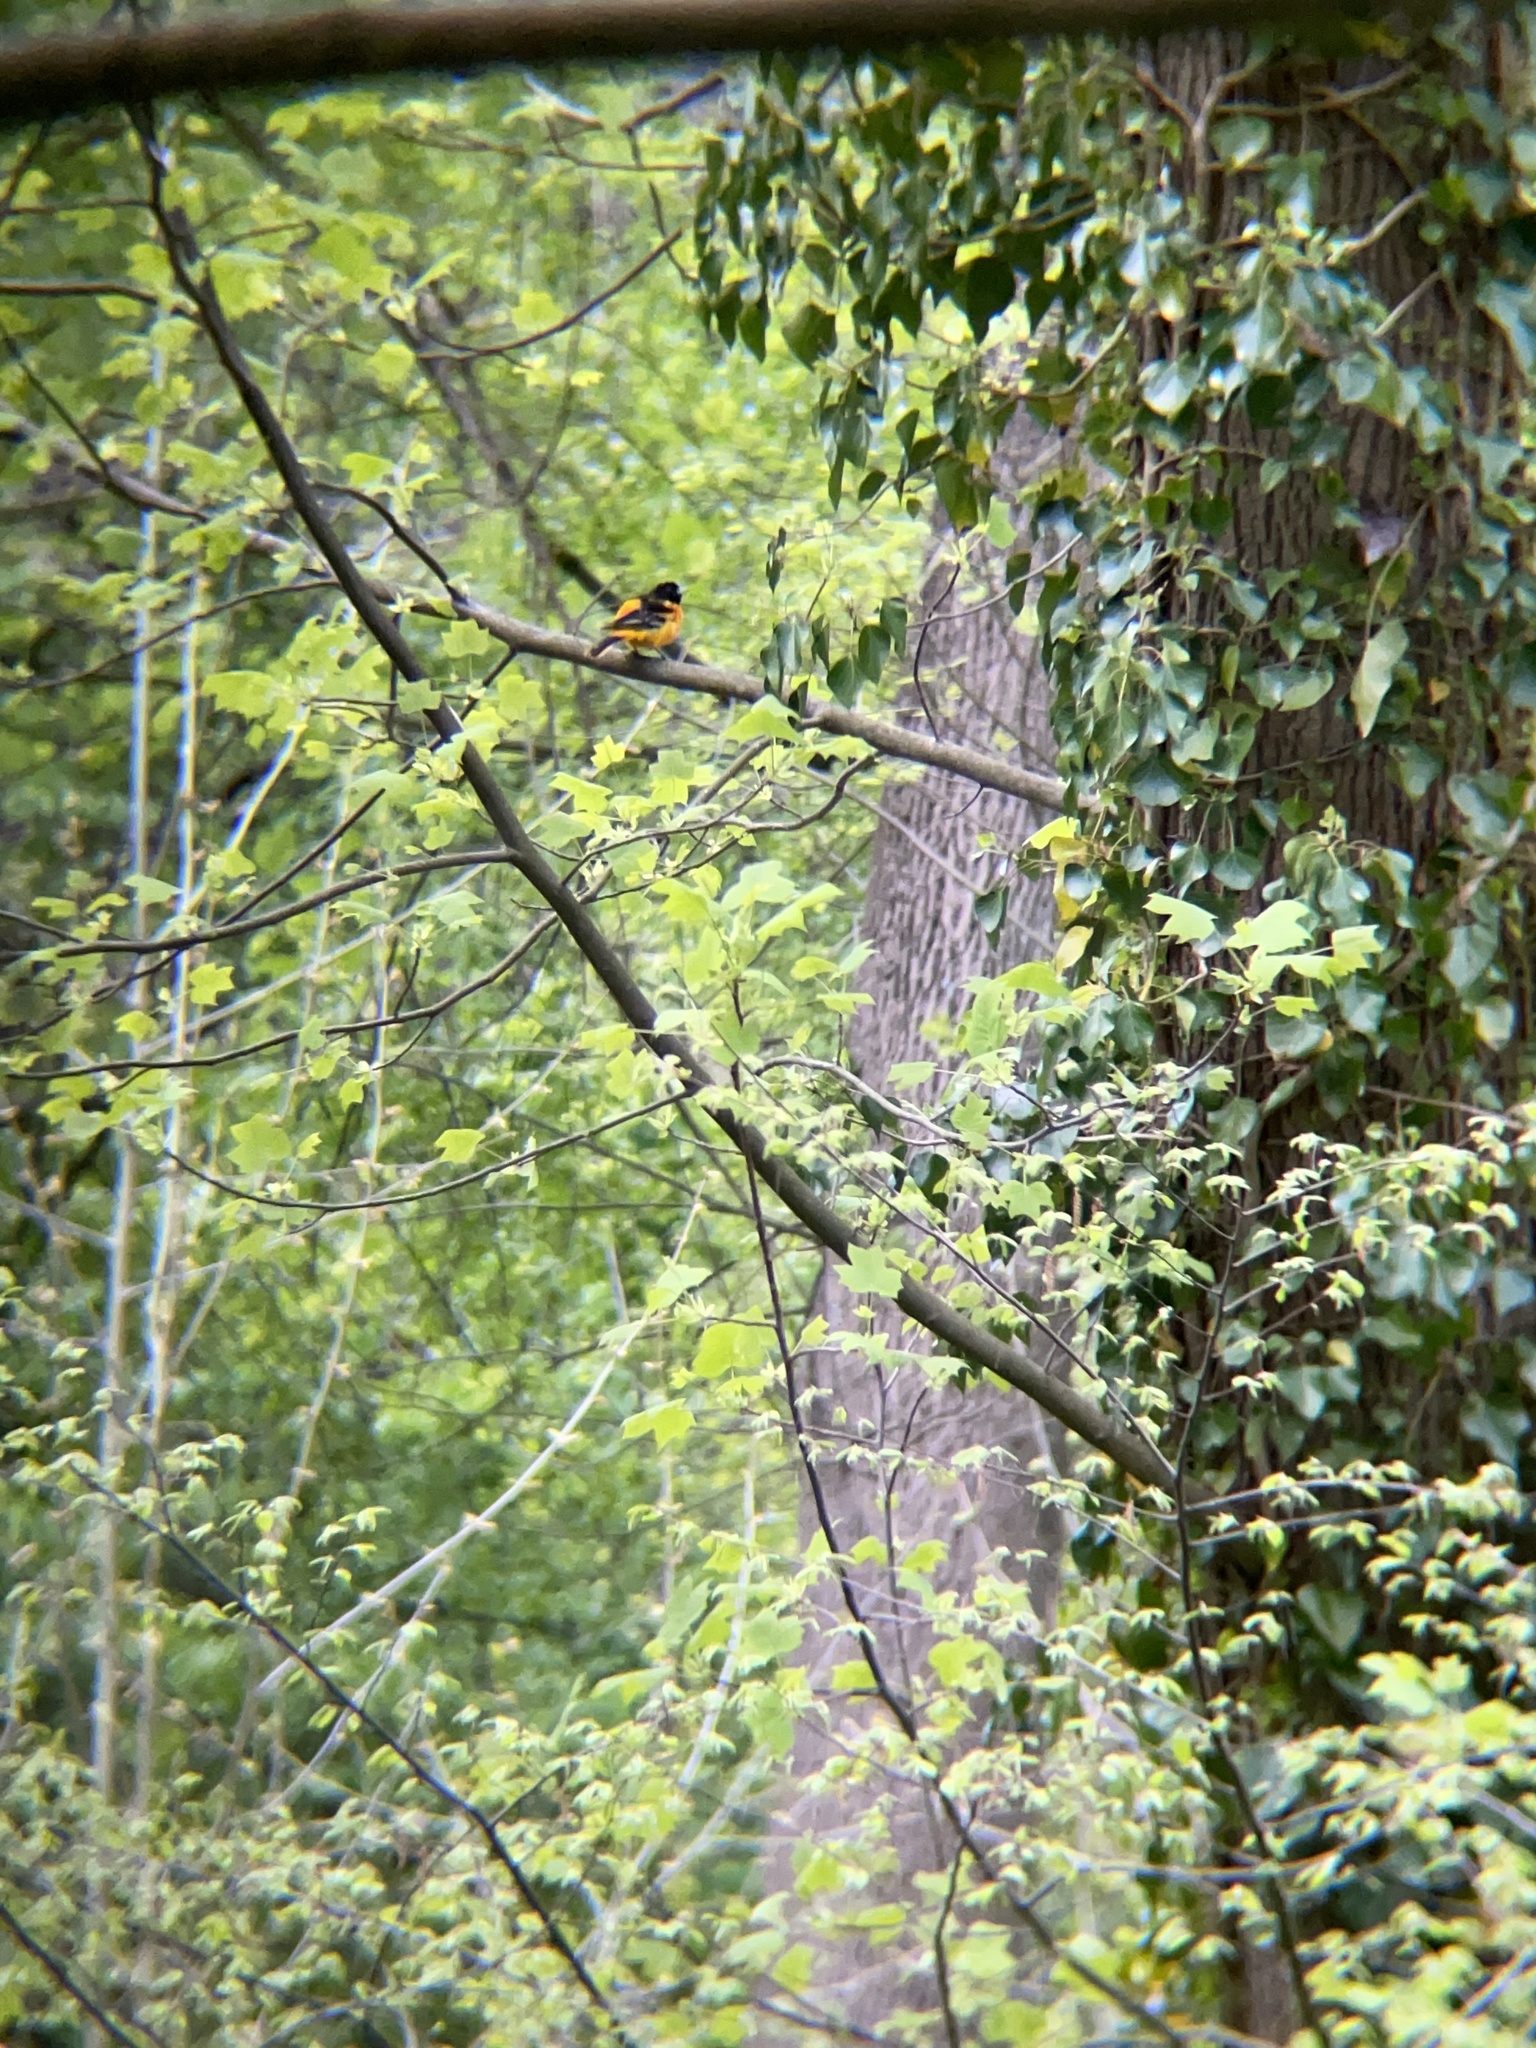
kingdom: Animalia
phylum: Chordata
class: Aves
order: Passeriformes
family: Icteridae
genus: Icterus
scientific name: Icterus galbula
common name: Baltimore oriole
